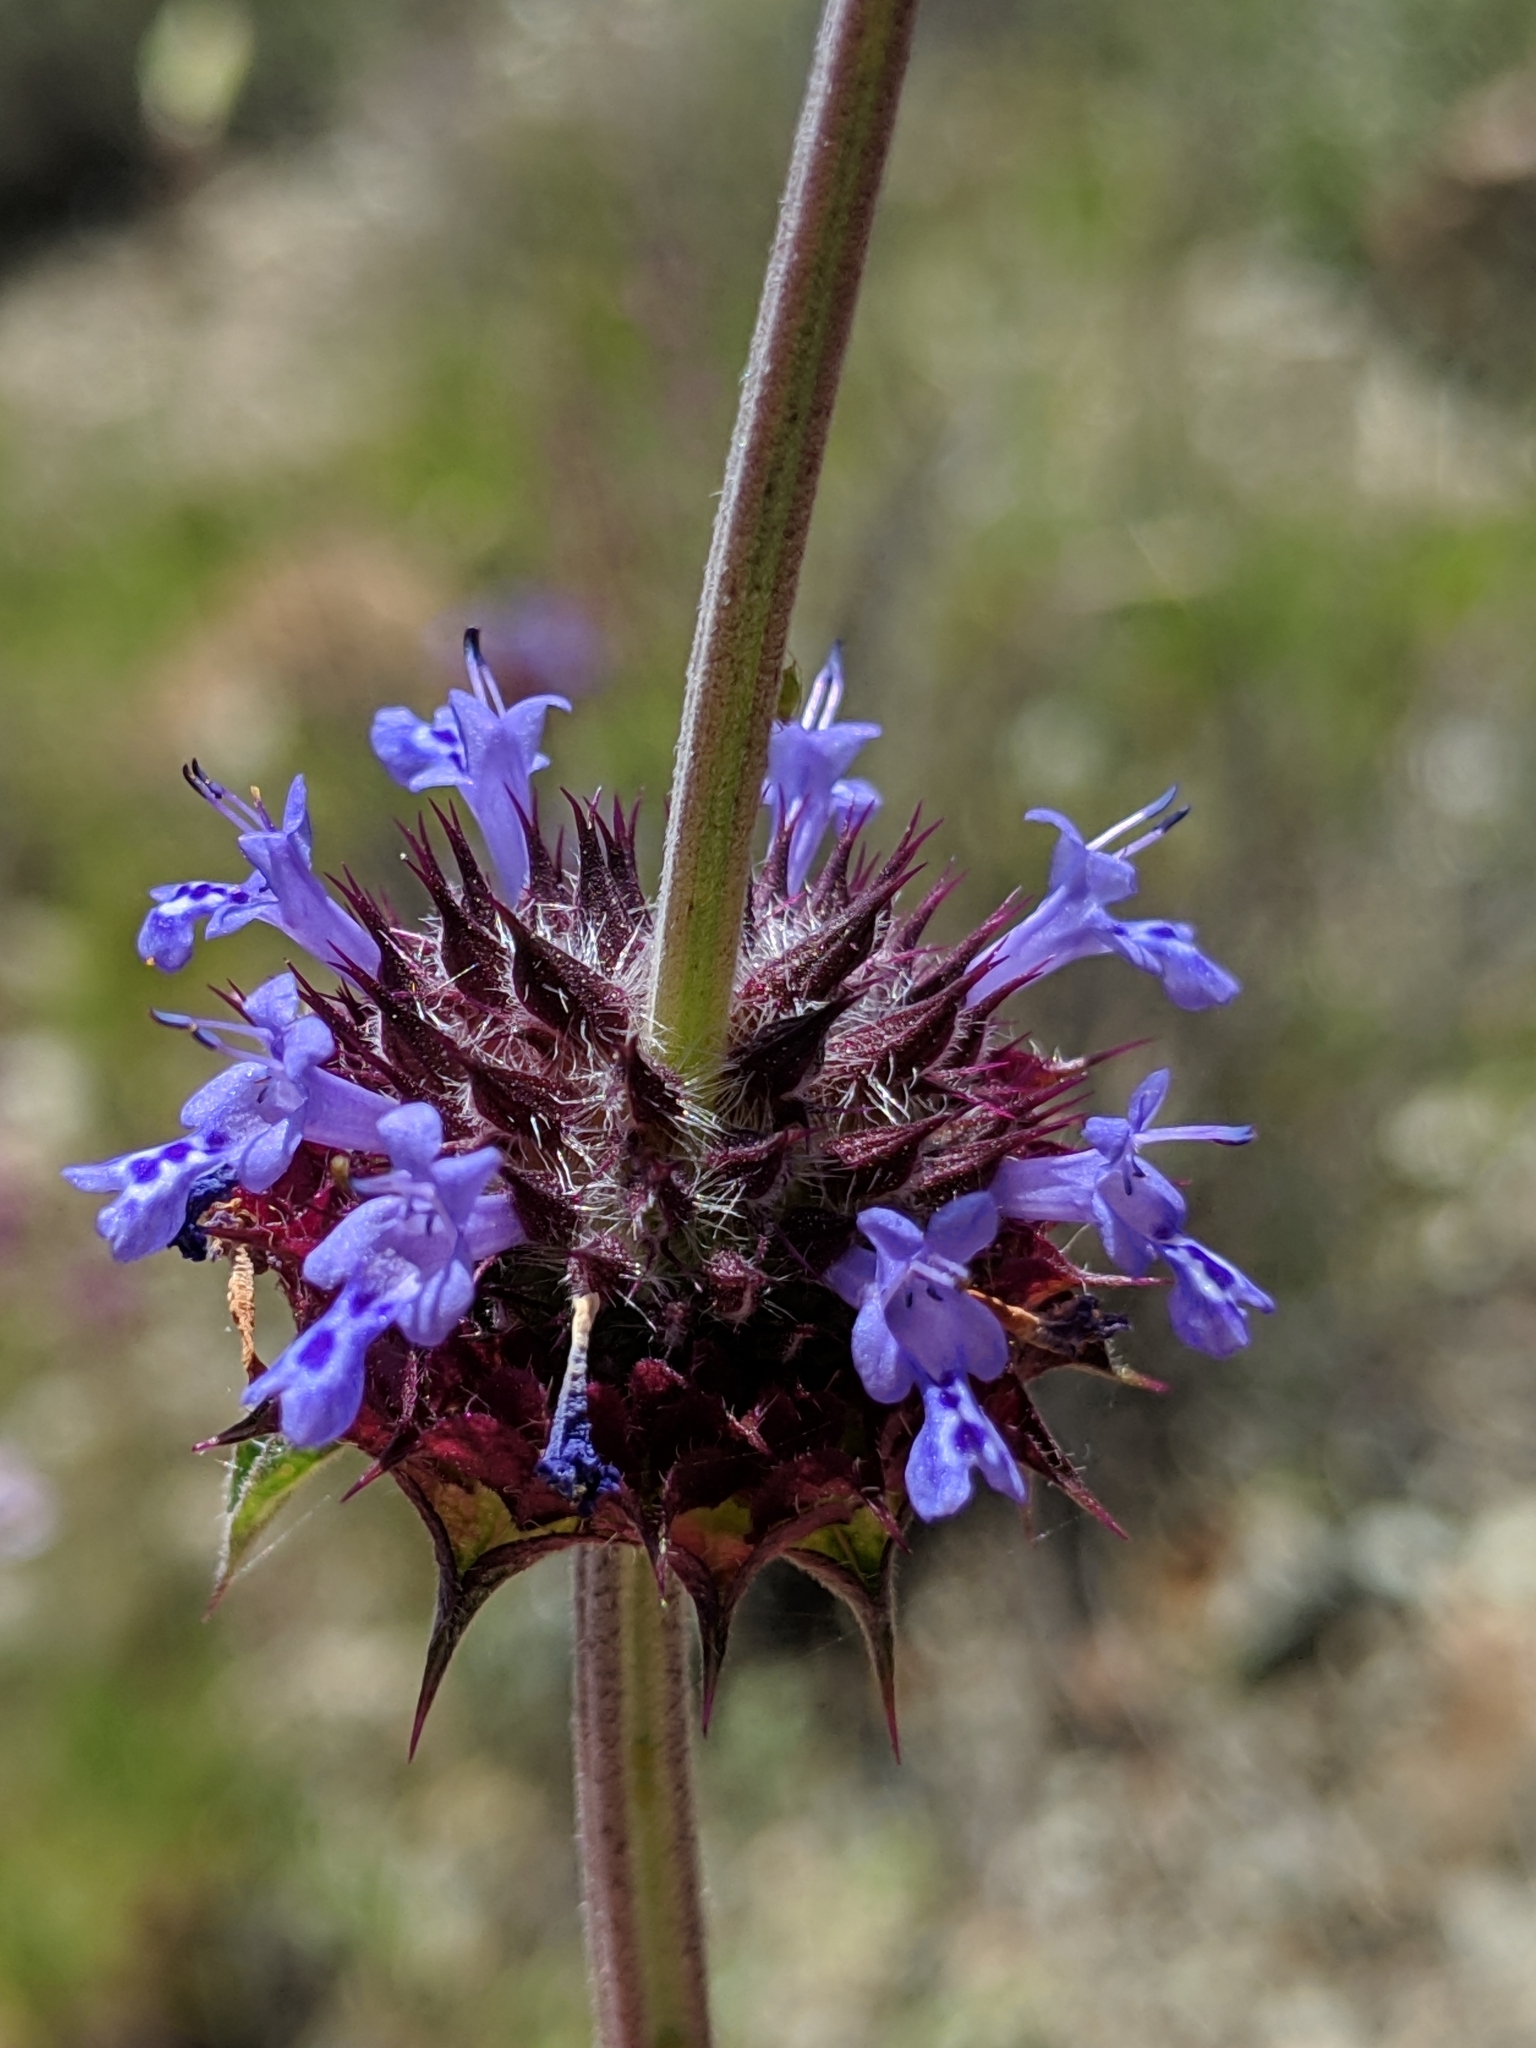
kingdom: Plantae
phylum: Tracheophyta
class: Magnoliopsida
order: Lamiales
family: Lamiaceae
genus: Salvia
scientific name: Salvia columbariae
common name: Chia
